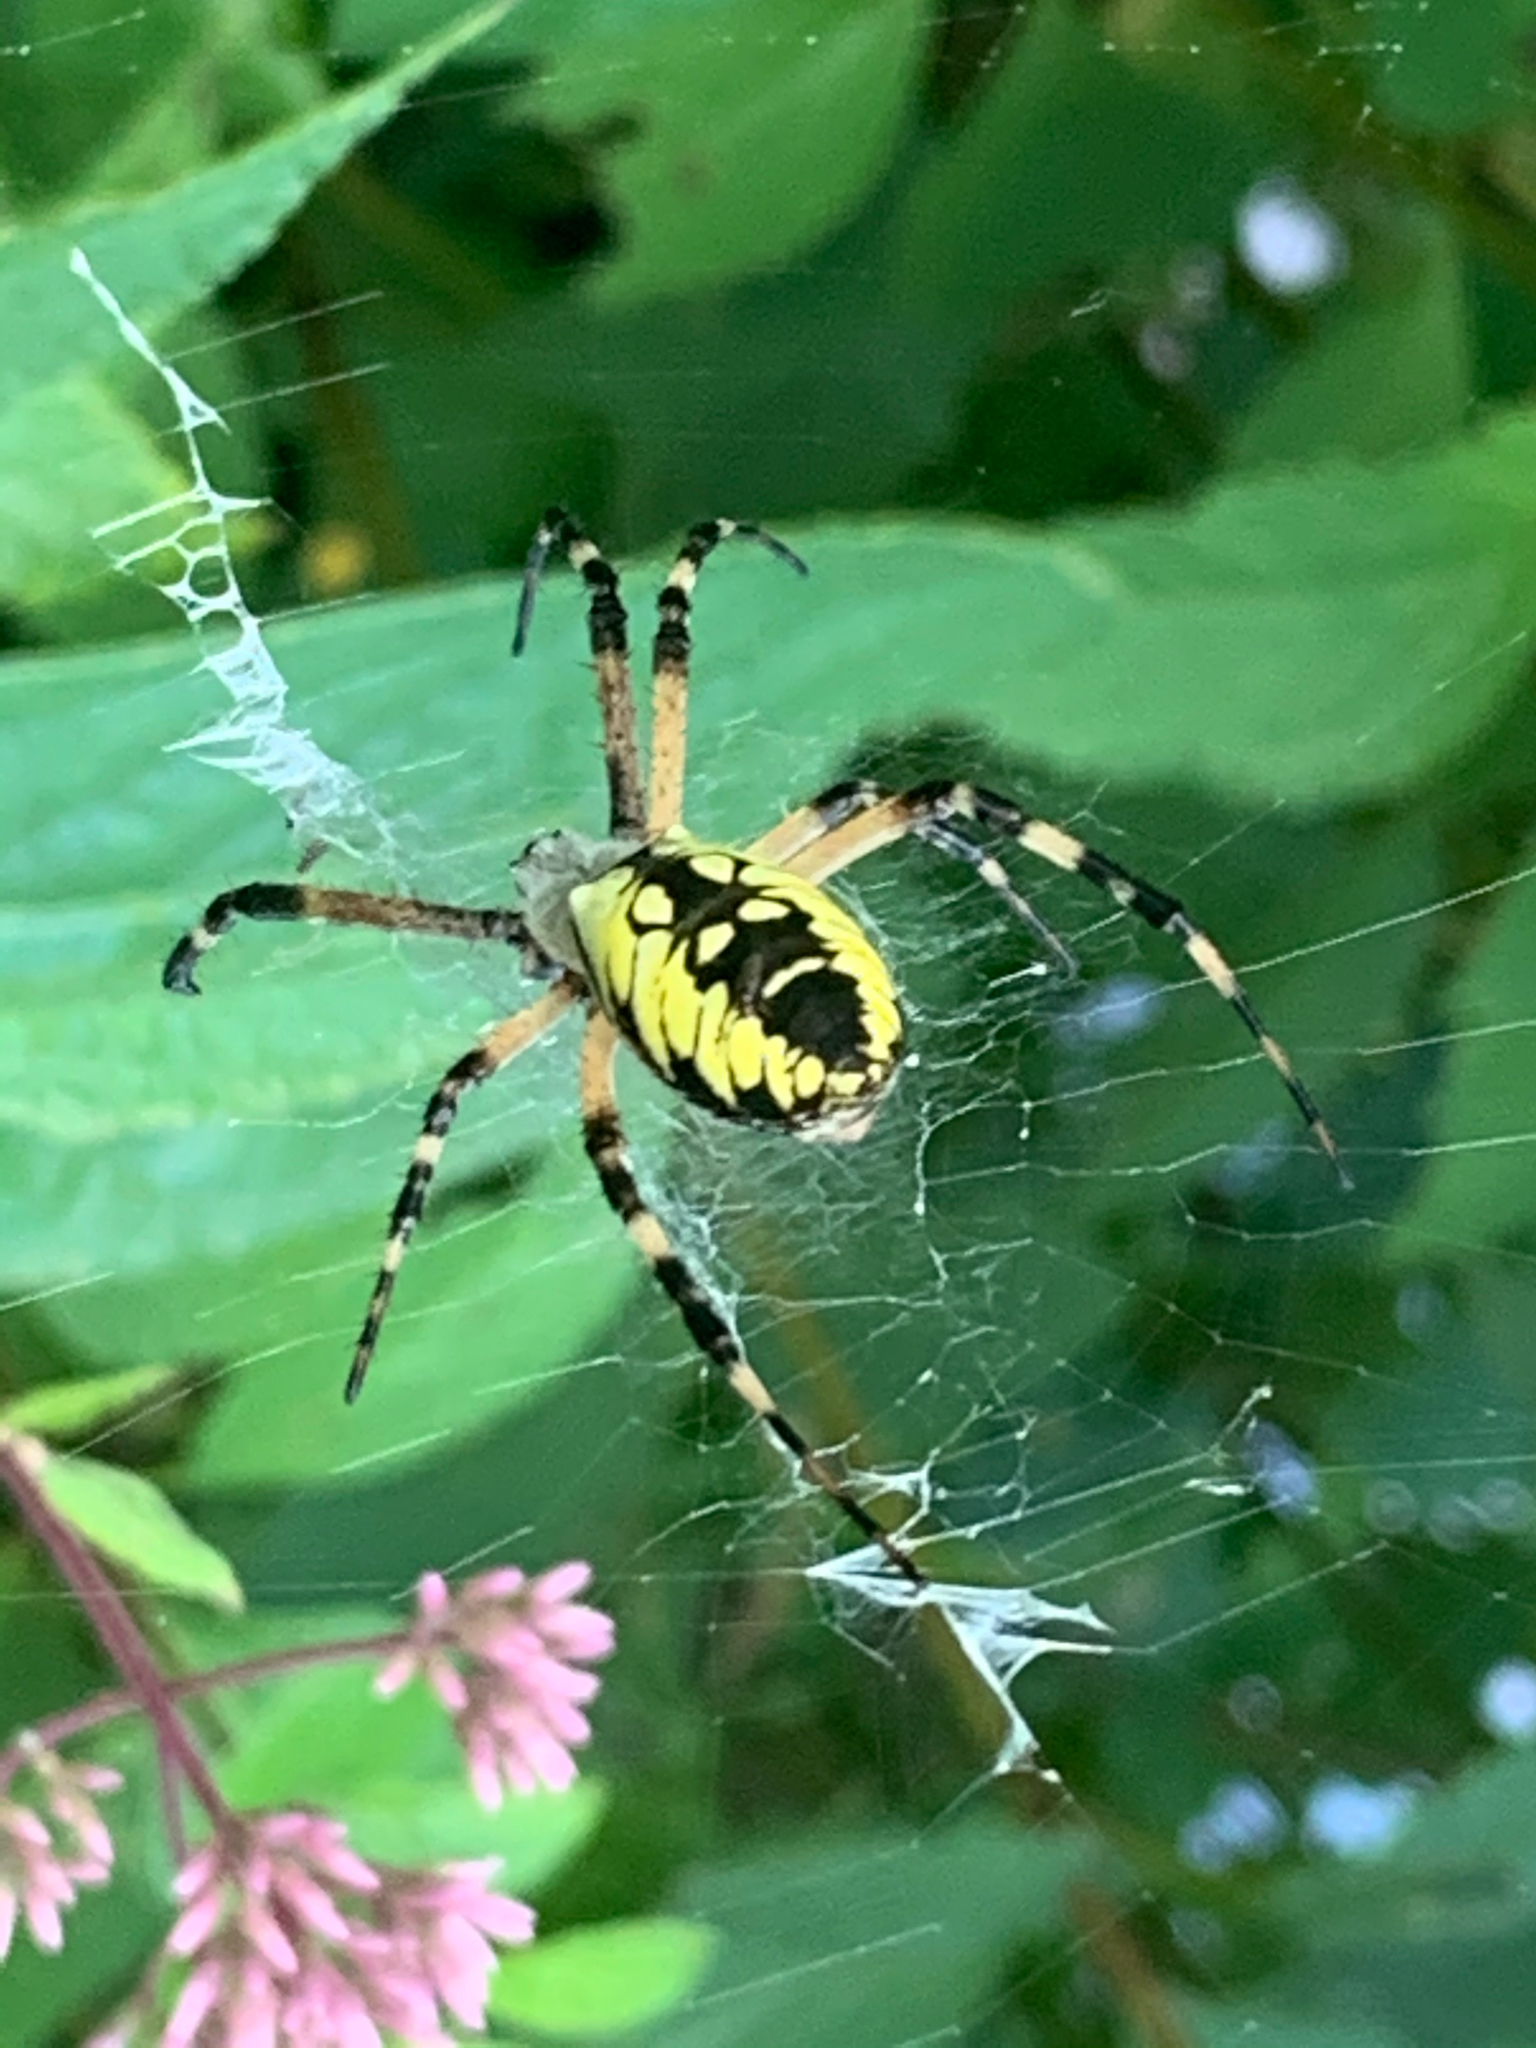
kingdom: Animalia
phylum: Arthropoda
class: Arachnida
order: Araneae
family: Araneidae
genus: Argiope
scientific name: Argiope aurantia
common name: Orb weavers
